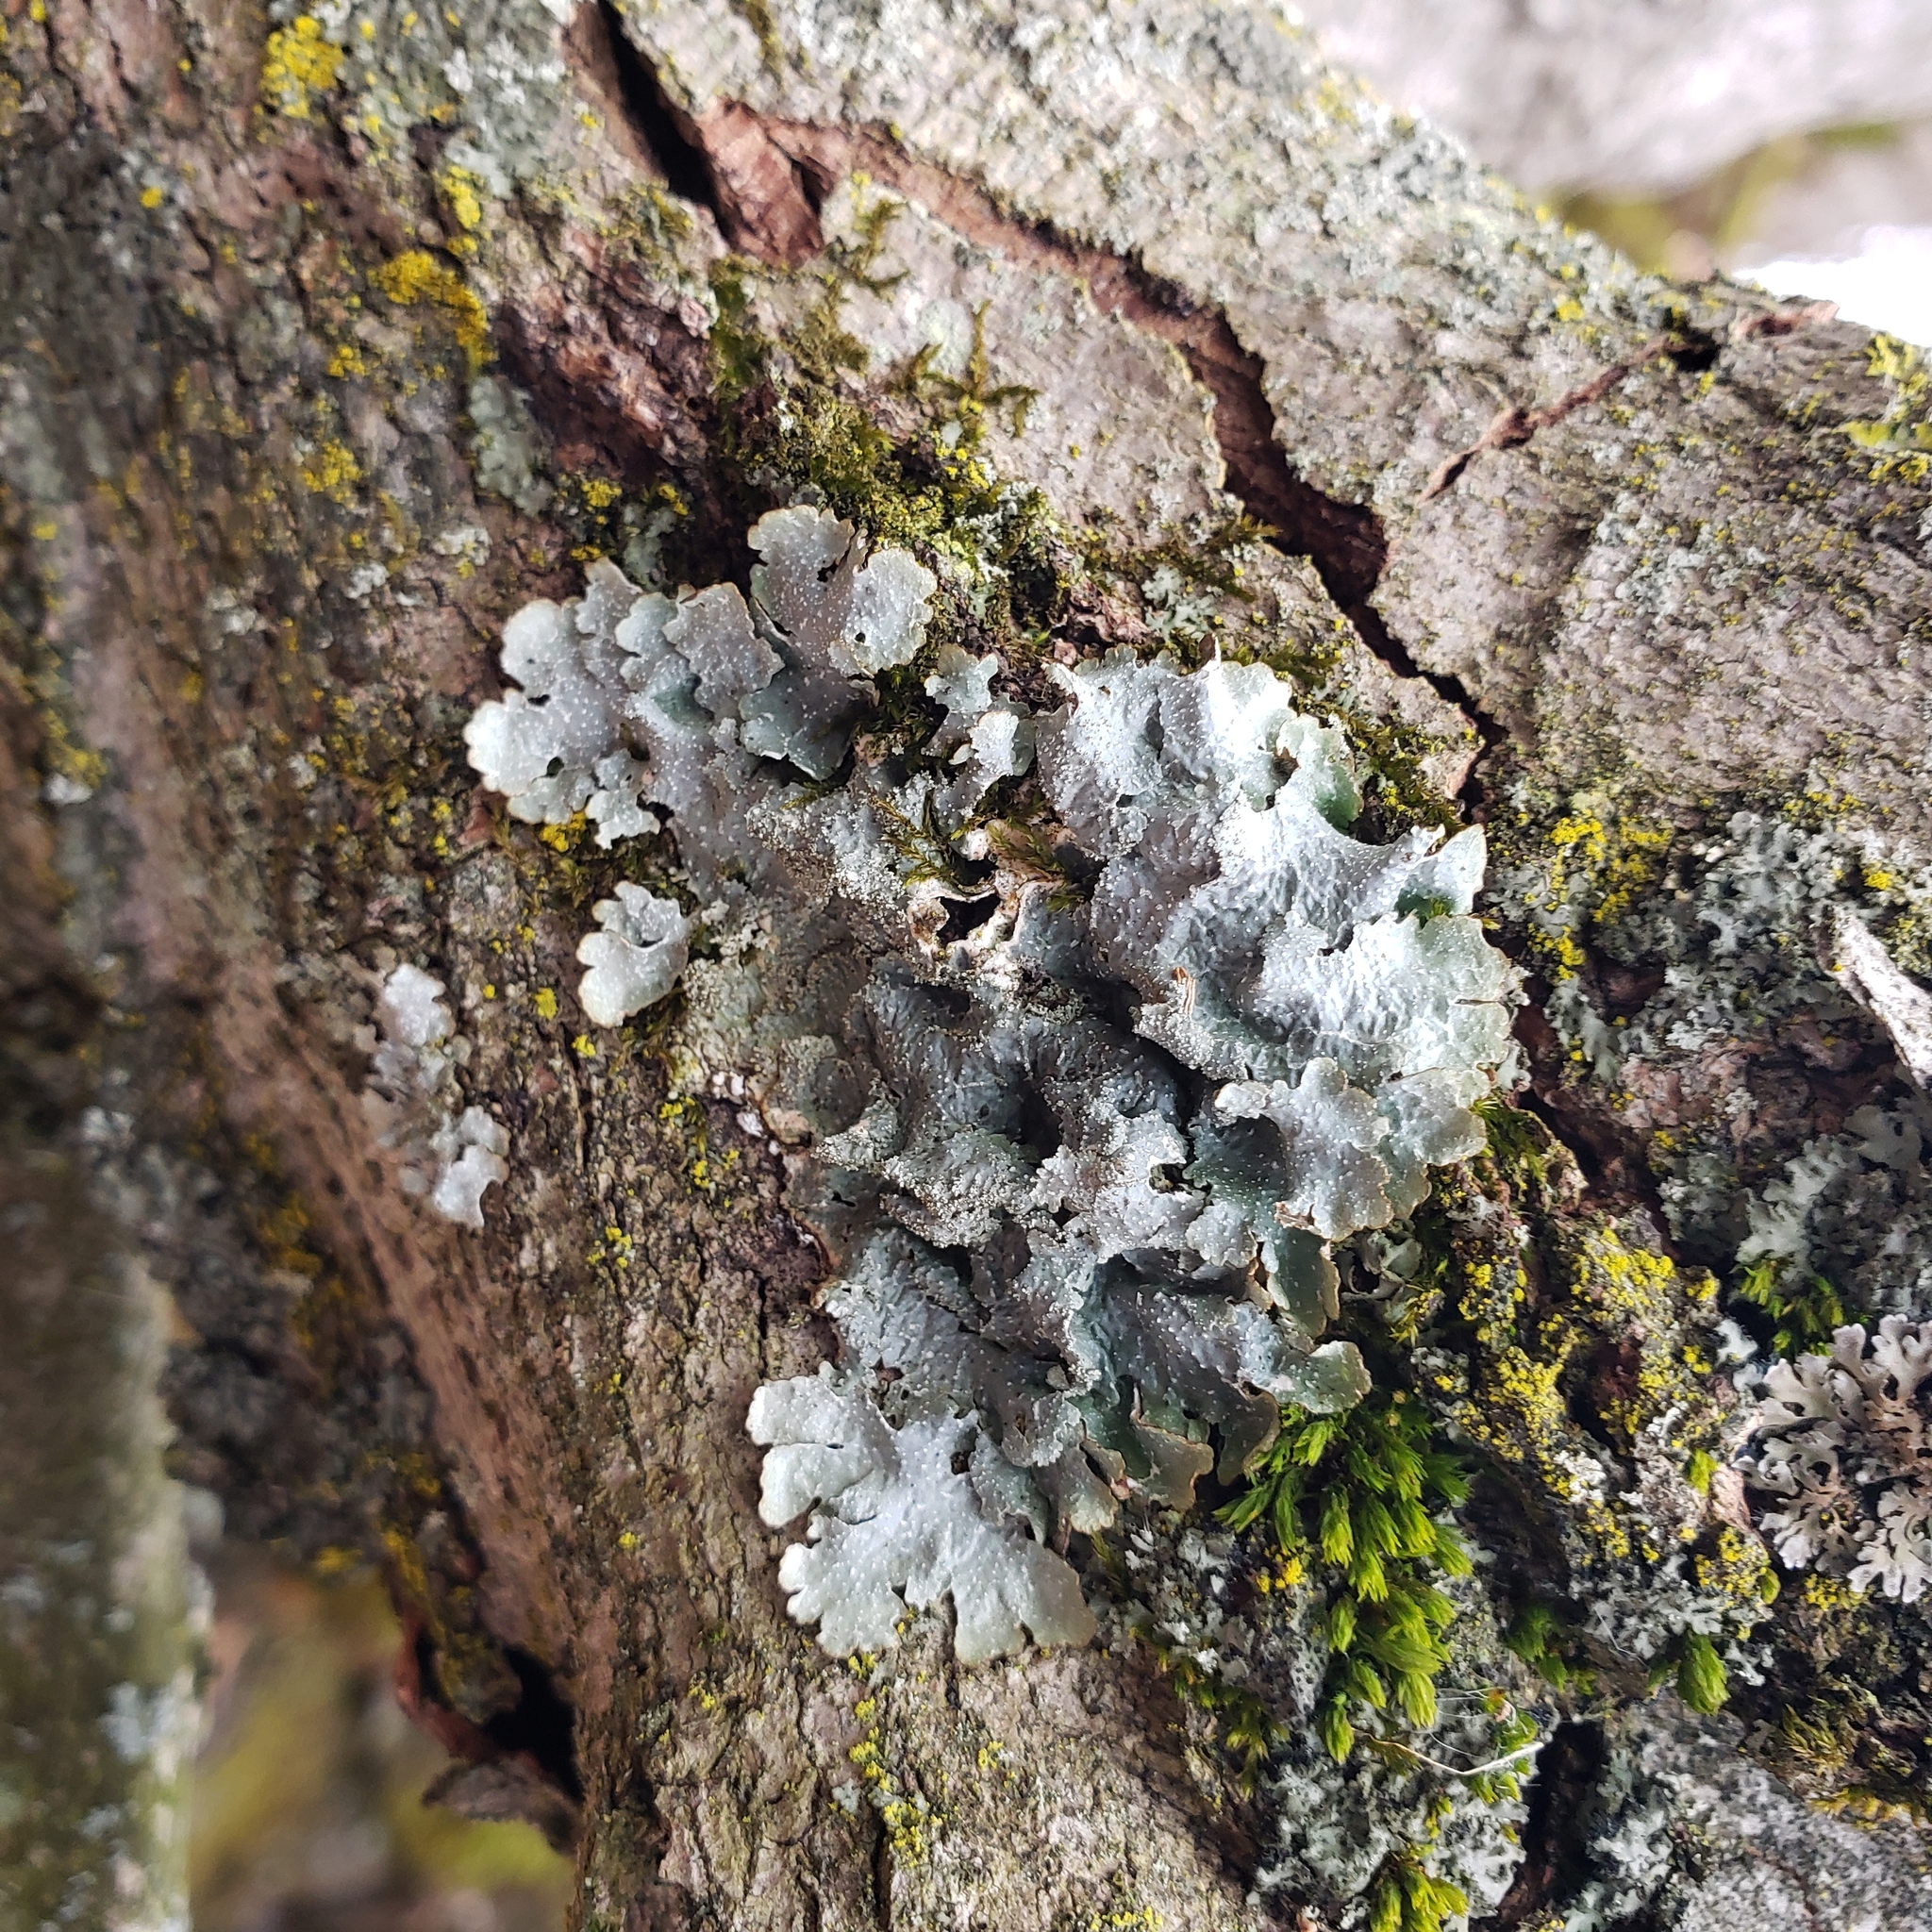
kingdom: Fungi
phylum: Ascomycota
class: Lecanoromycetes
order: Lecanorales
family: Parmeliaceae
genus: Punctelia
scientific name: Punctelia rudecta
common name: Rough speckled shield lichen
